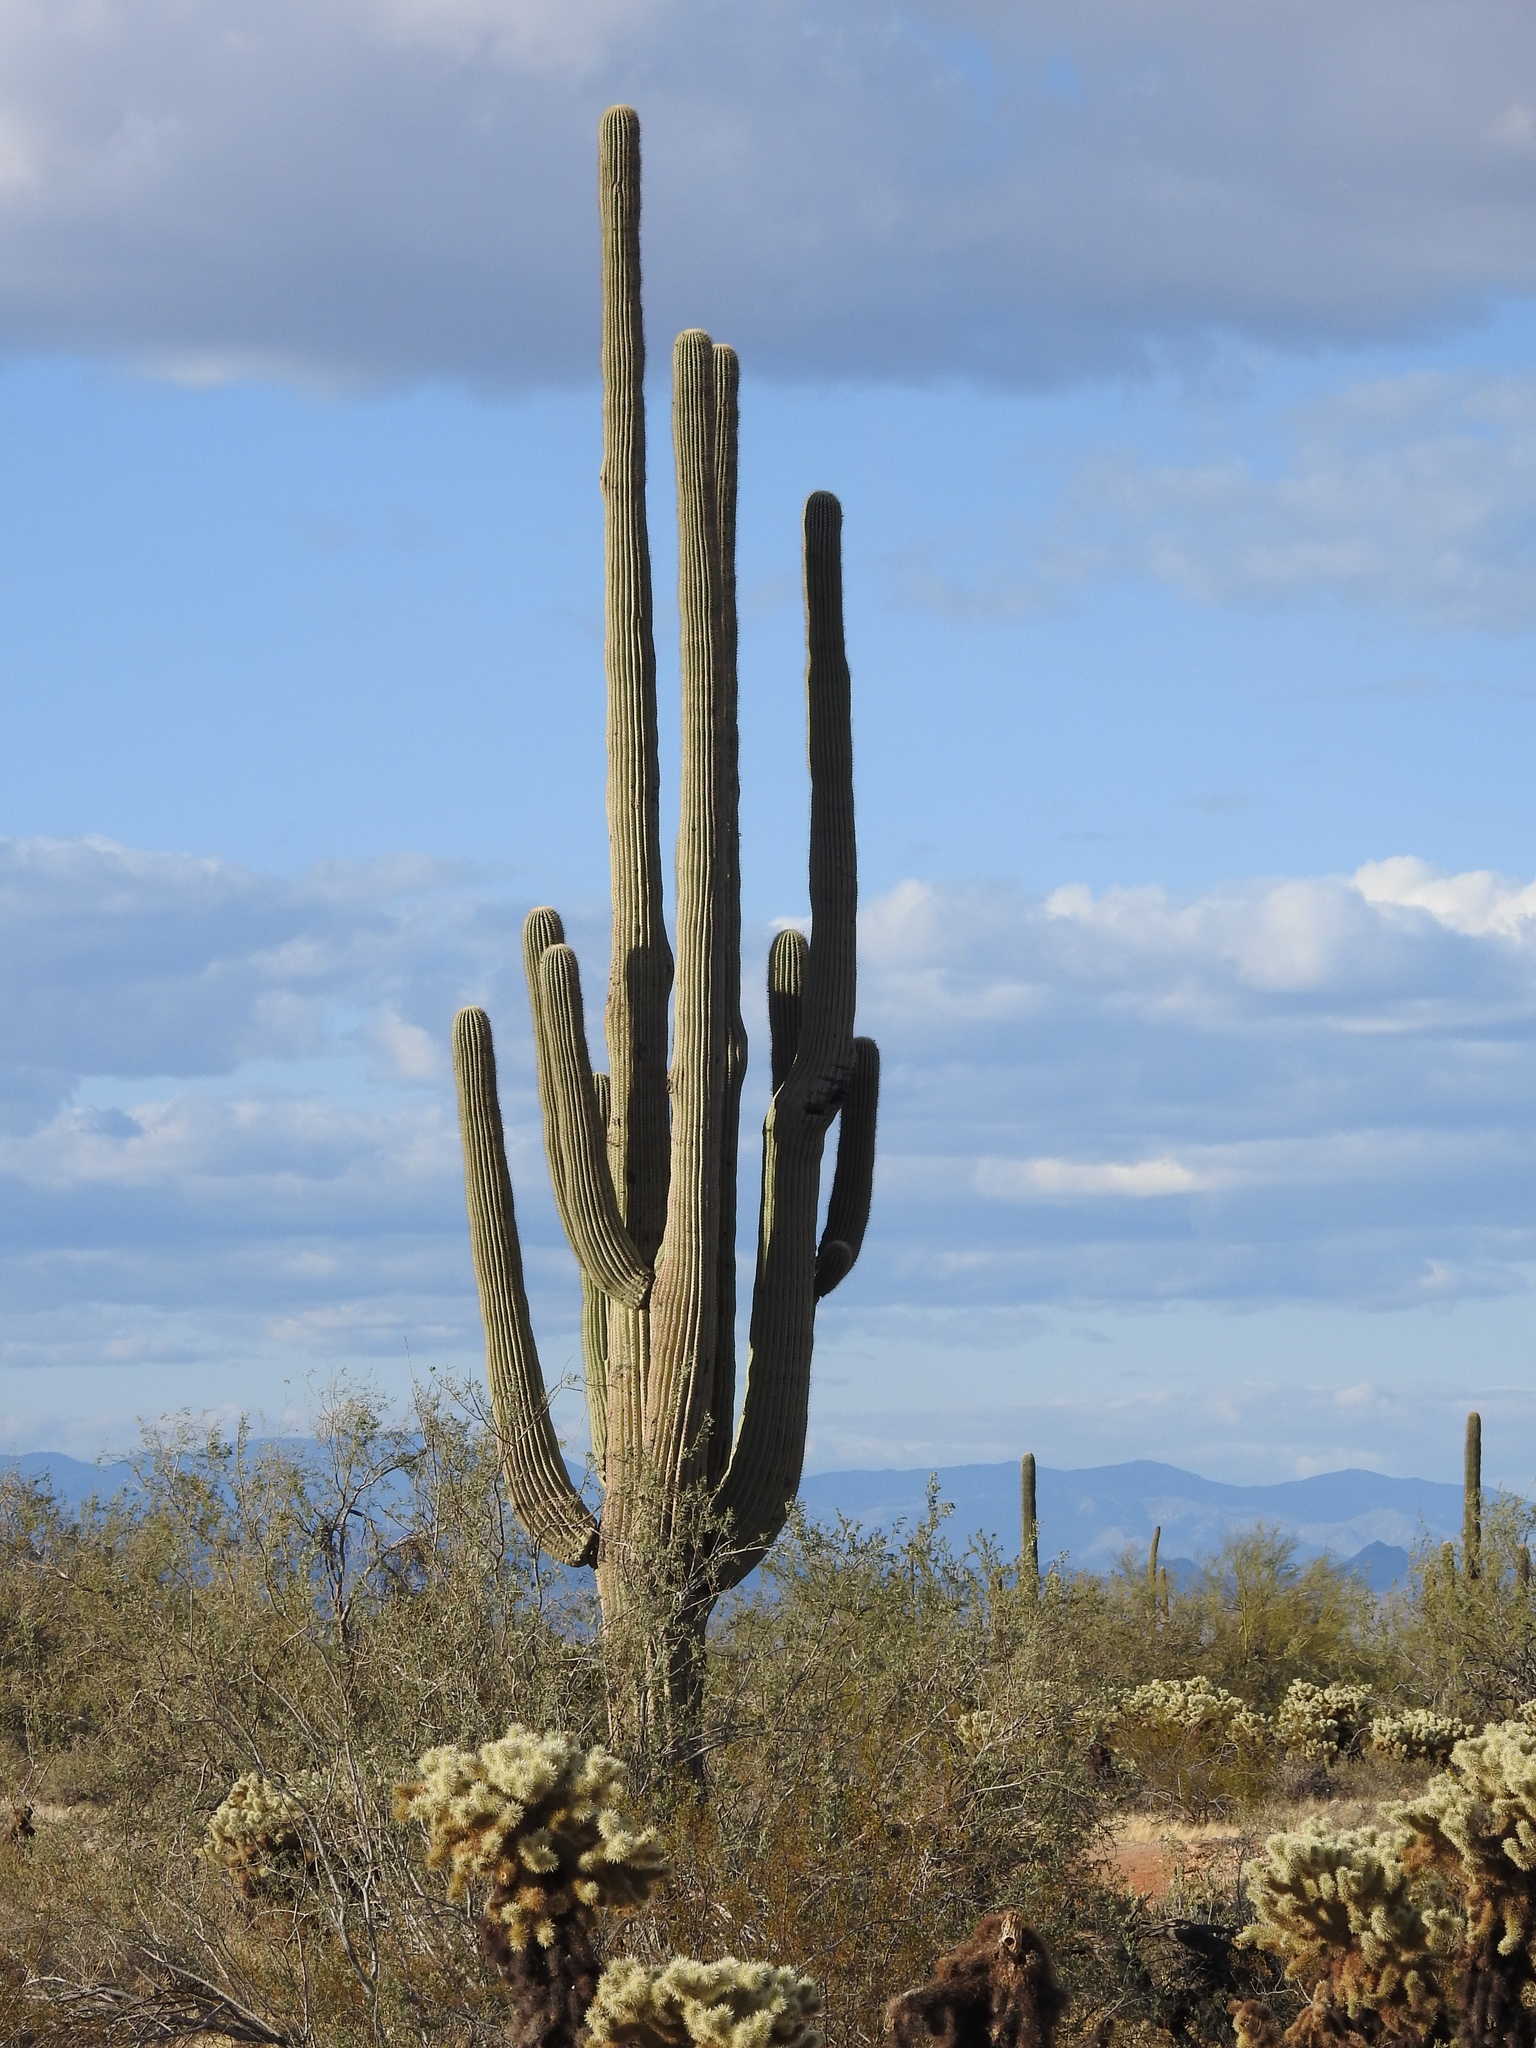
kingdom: Plantae
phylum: Tracheophyta
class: Magnoliopsida
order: Caryophyllales
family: Cactaceae
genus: Carnegiea
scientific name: Carnegiea gigantea
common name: Saguaro
